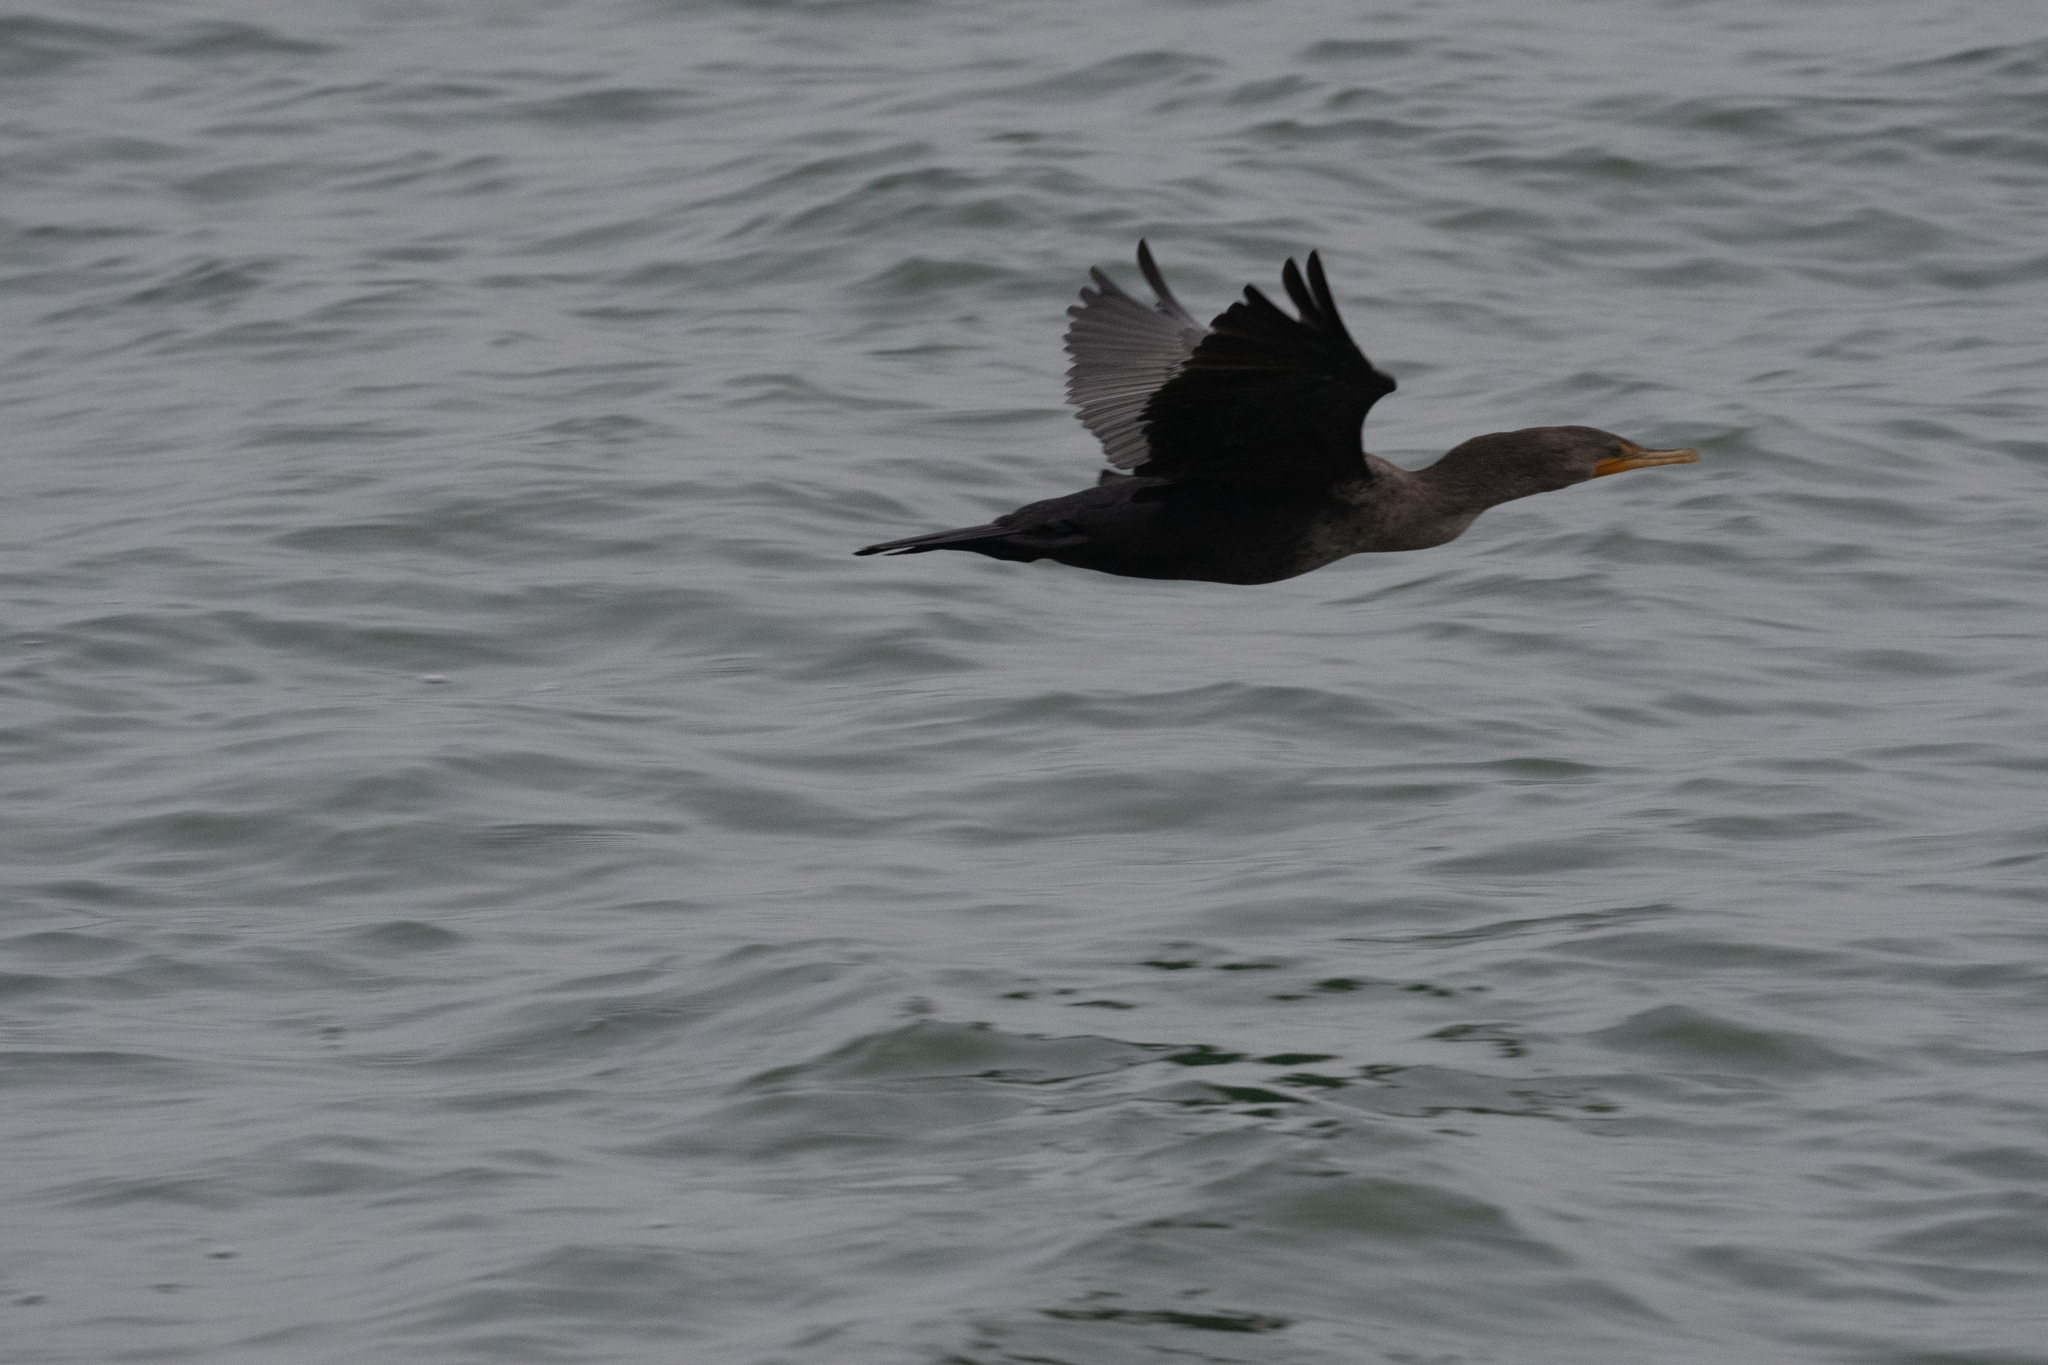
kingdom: Animalia
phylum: Chordata
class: Aves
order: Suliformes
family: Phalacrocoracidae
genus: Phalacrocorax
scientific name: Phalacrocorax auritus
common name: Double-crested cormorant
